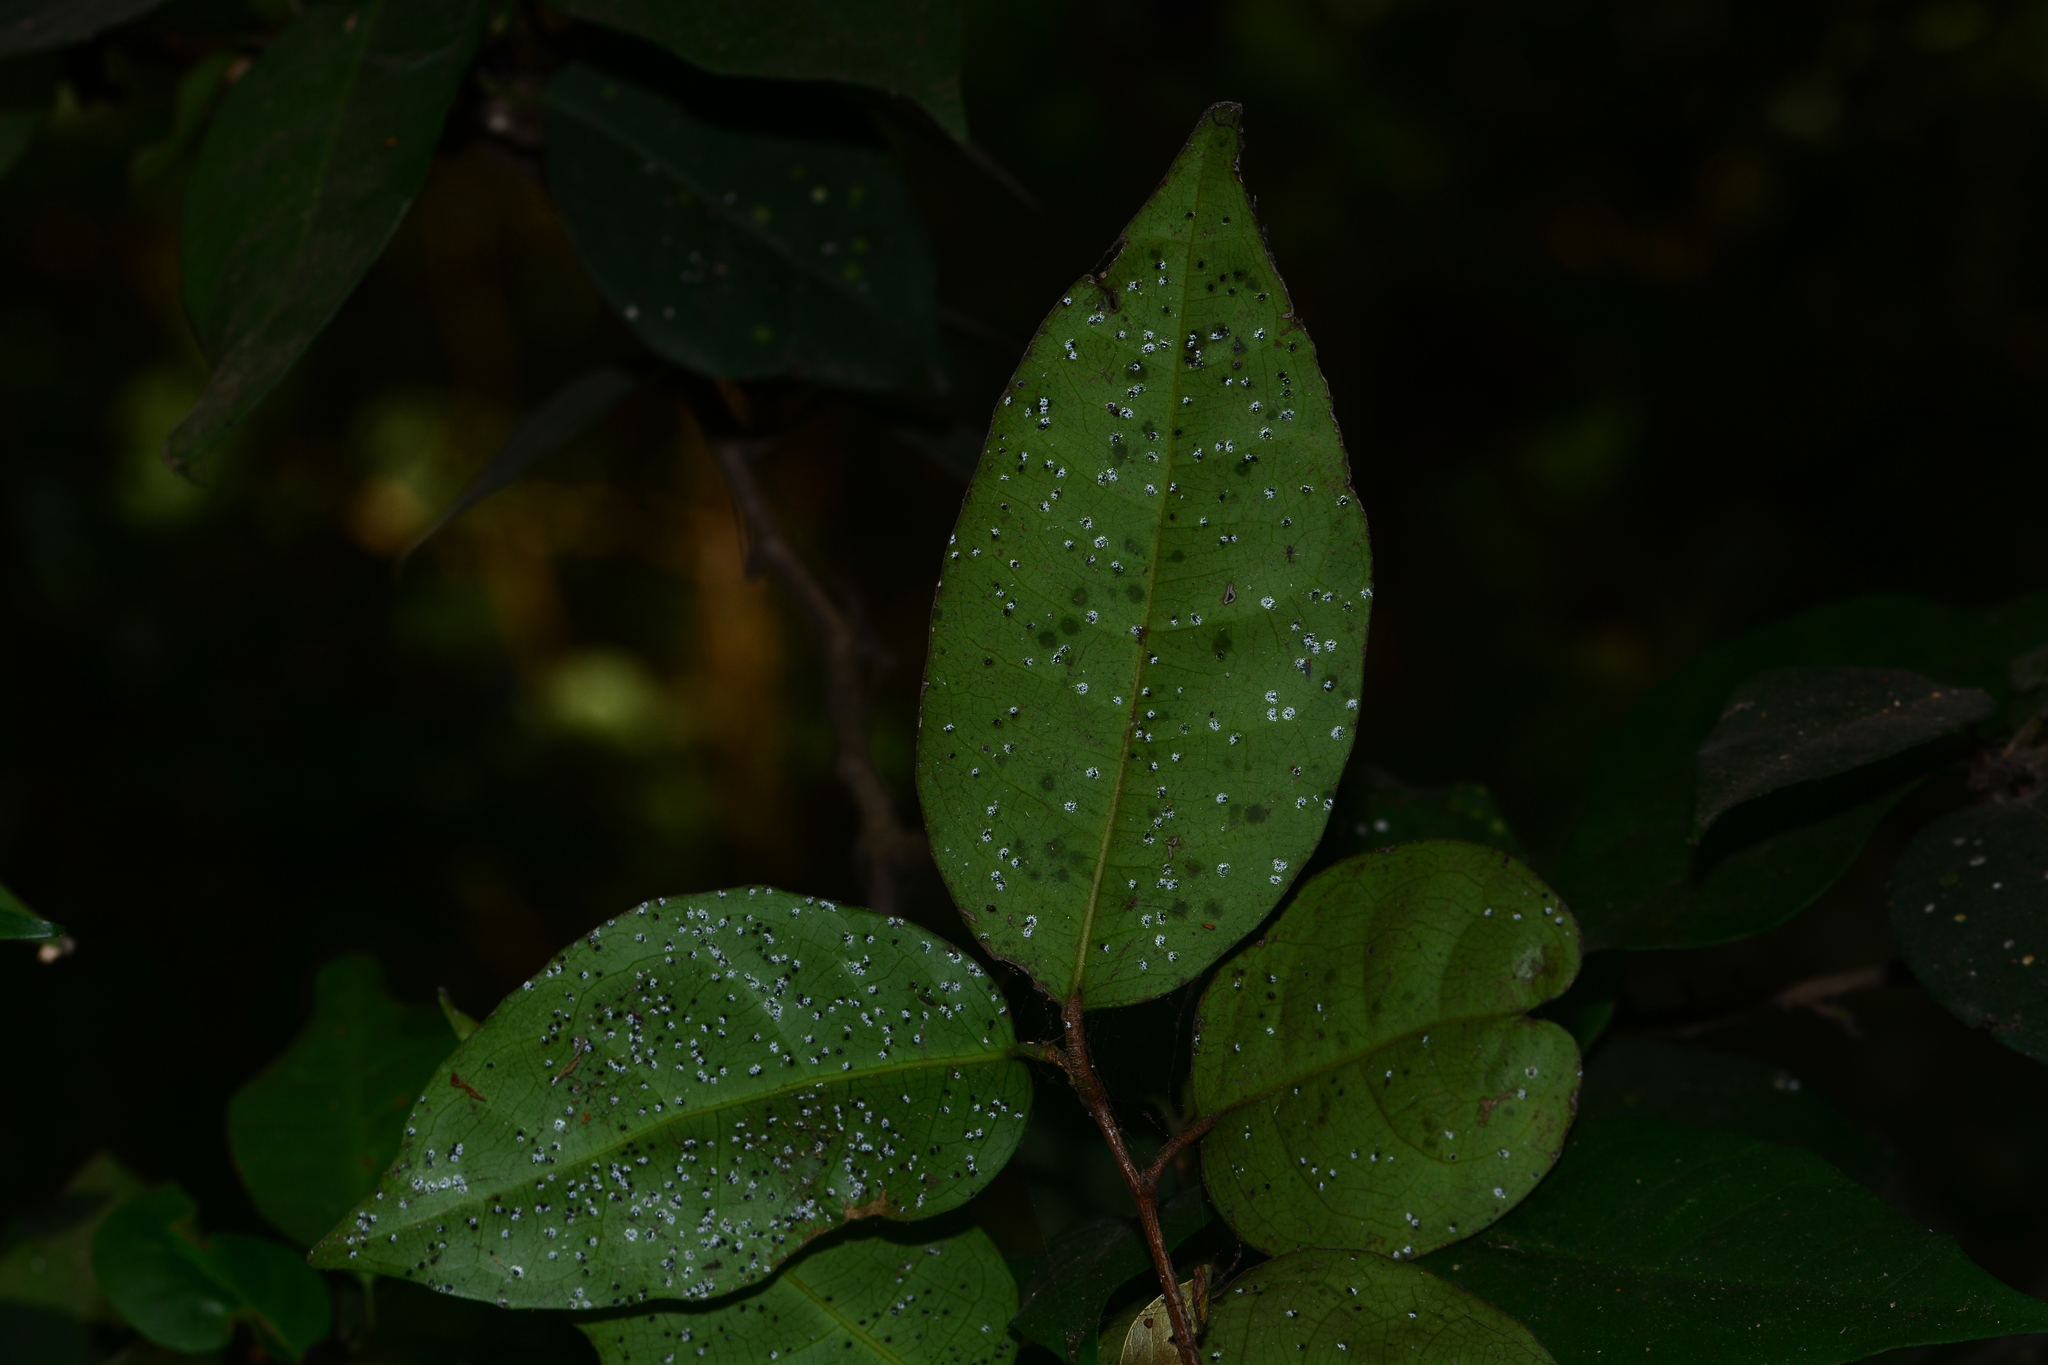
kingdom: Plantae
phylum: Tracheophyta
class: Magnoliopsida
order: Malpighiales
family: Euphorbiaceae
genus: Croton
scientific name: Croton lawianus
